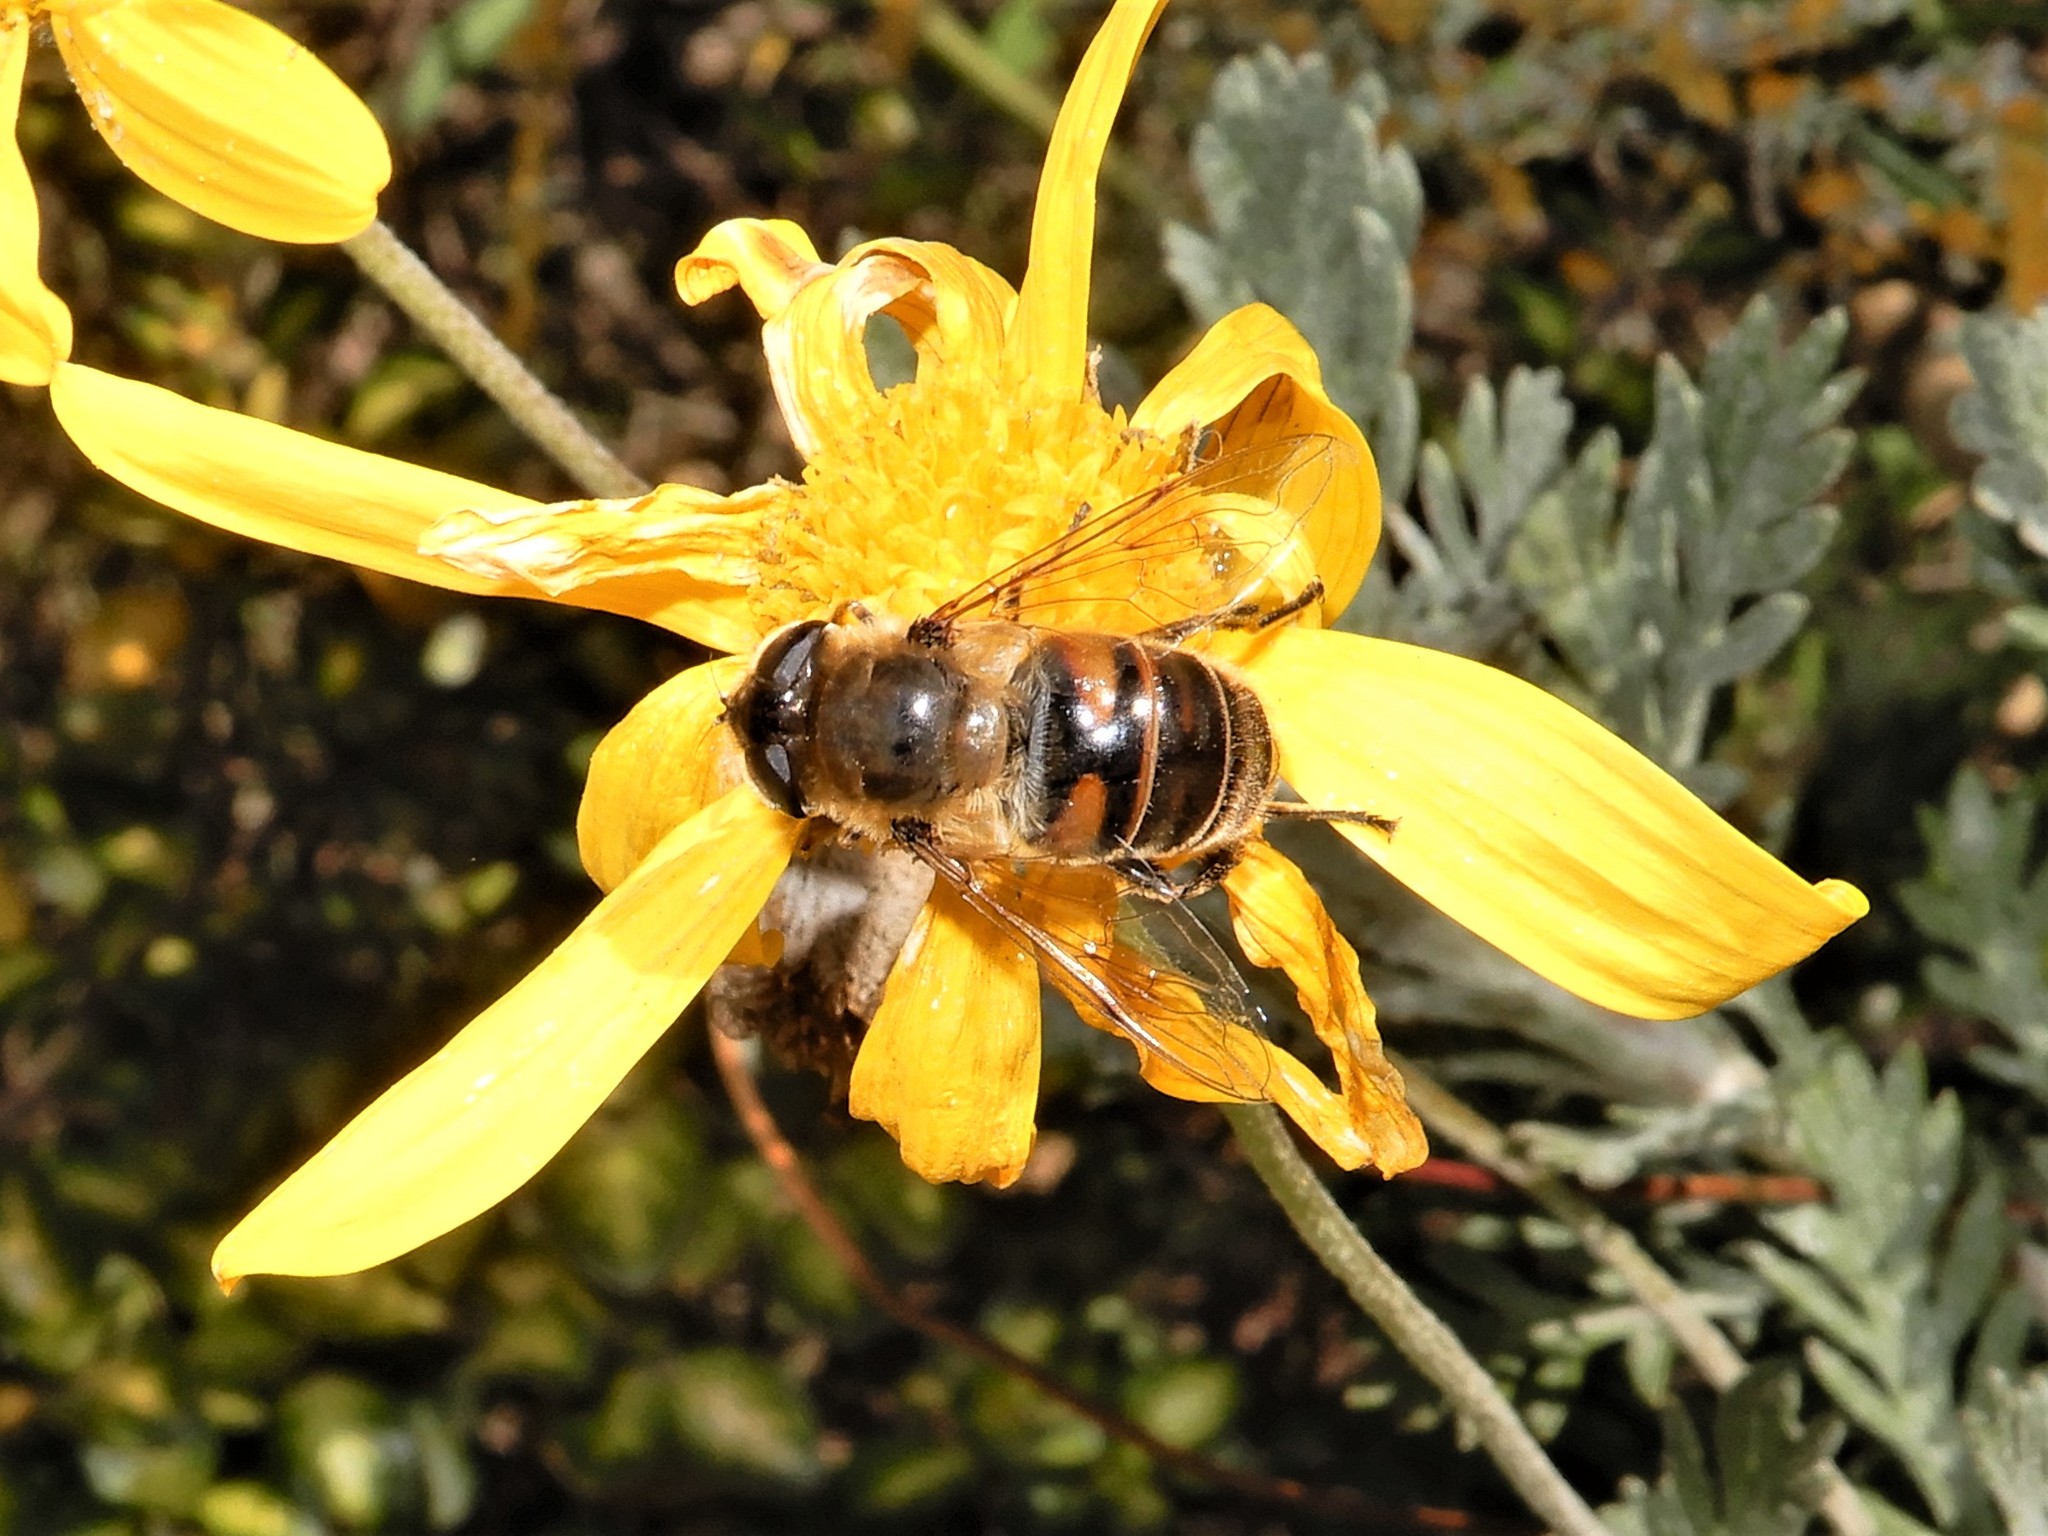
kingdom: Animalia
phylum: Arthropoda
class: Insecta
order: Diptera
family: Syrphidae
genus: Eristalis
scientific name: Eristalis tenax
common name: Drone fly
